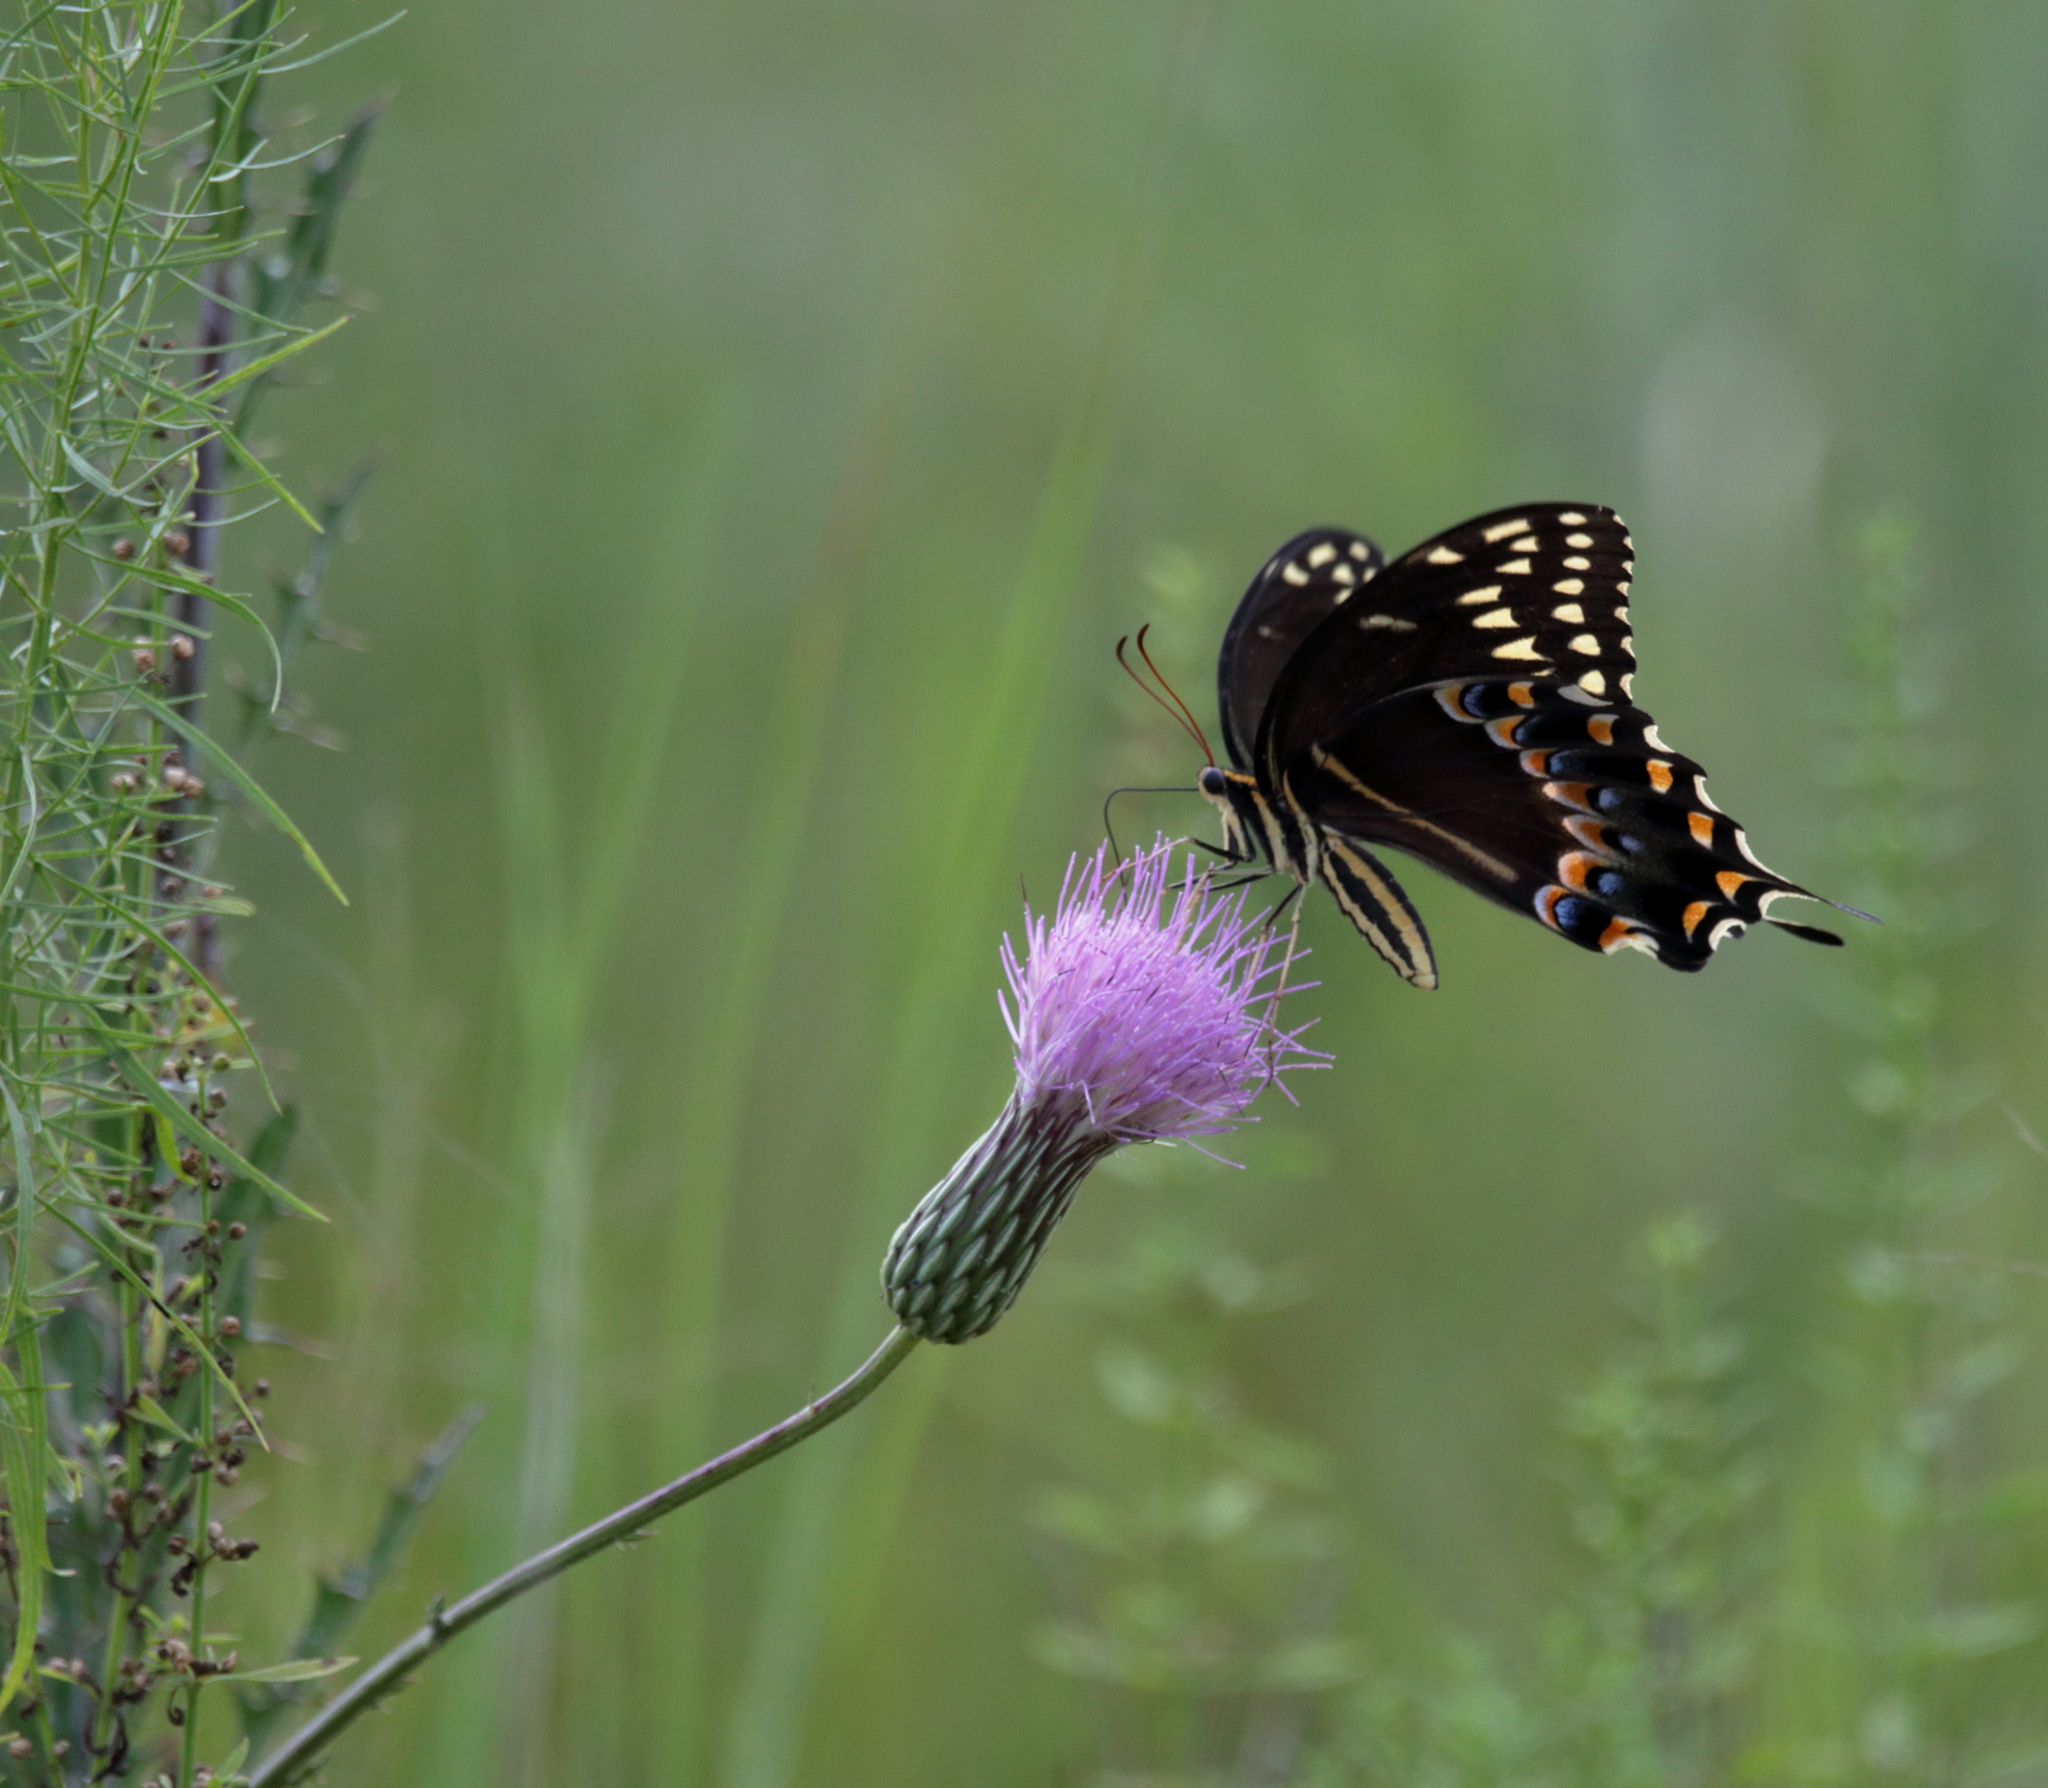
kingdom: Animalia
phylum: Arthropoda
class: Insecta
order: Lepidoptera
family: Papilionidae
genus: Papilio
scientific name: Papilio palamedes
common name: Palamedes swallowtail
